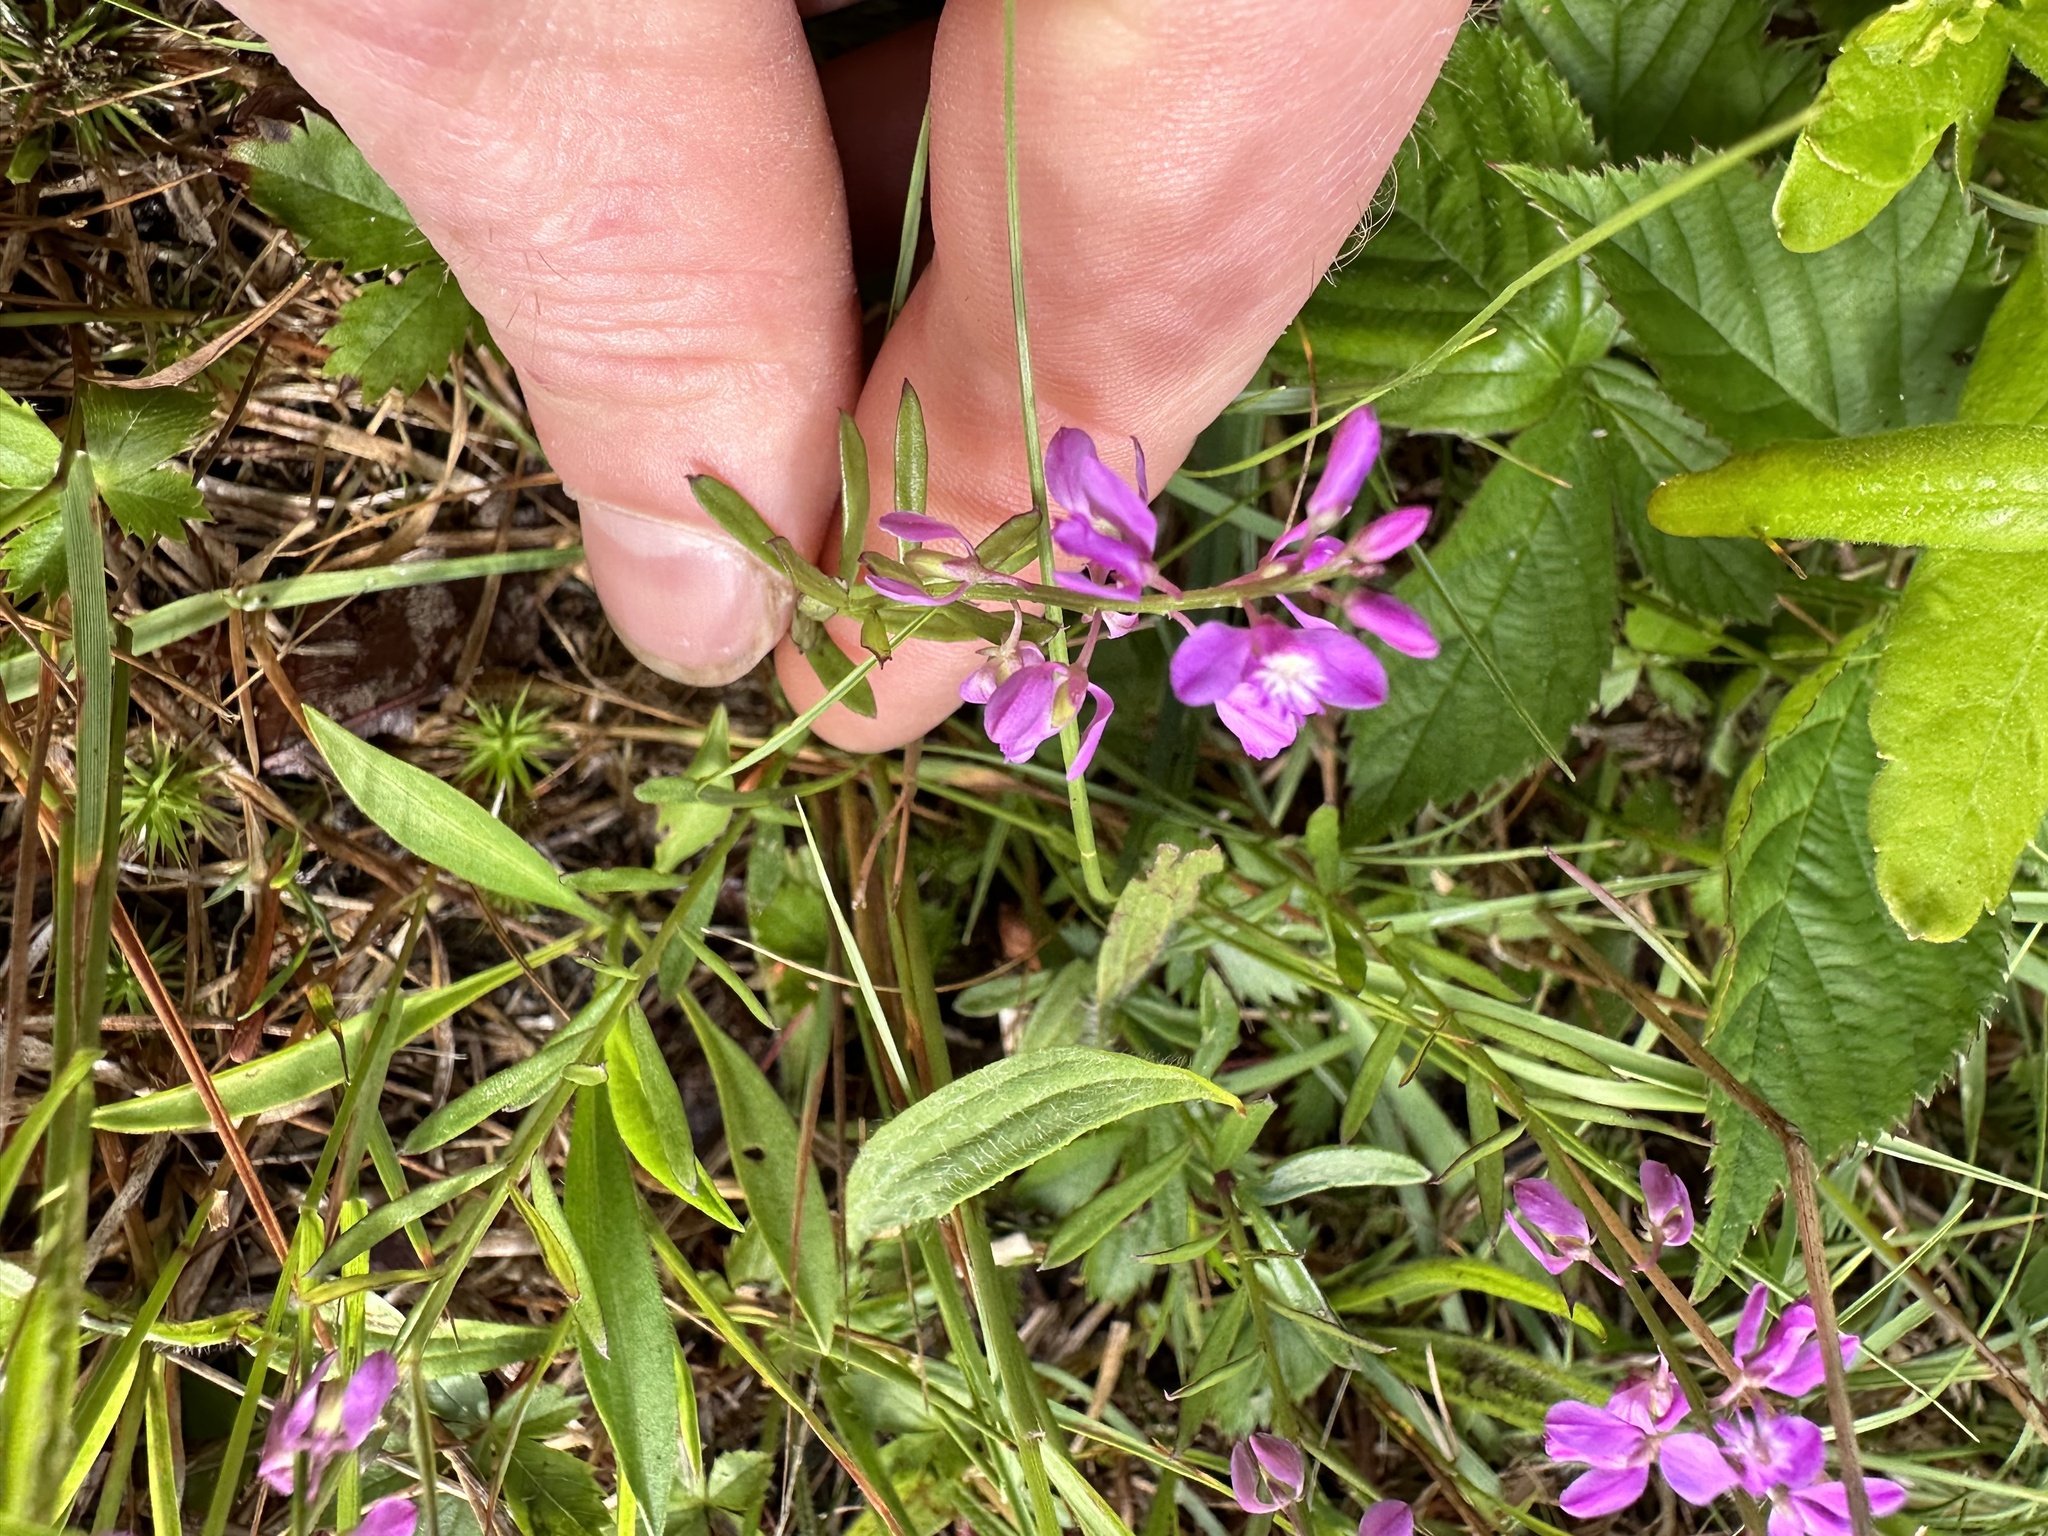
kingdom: Plantae
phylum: Tracheophyta
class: Magnoliopsida
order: Fabales
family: Polygalaceae
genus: Polygala
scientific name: Polygala polygama
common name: Bitter milkwort
